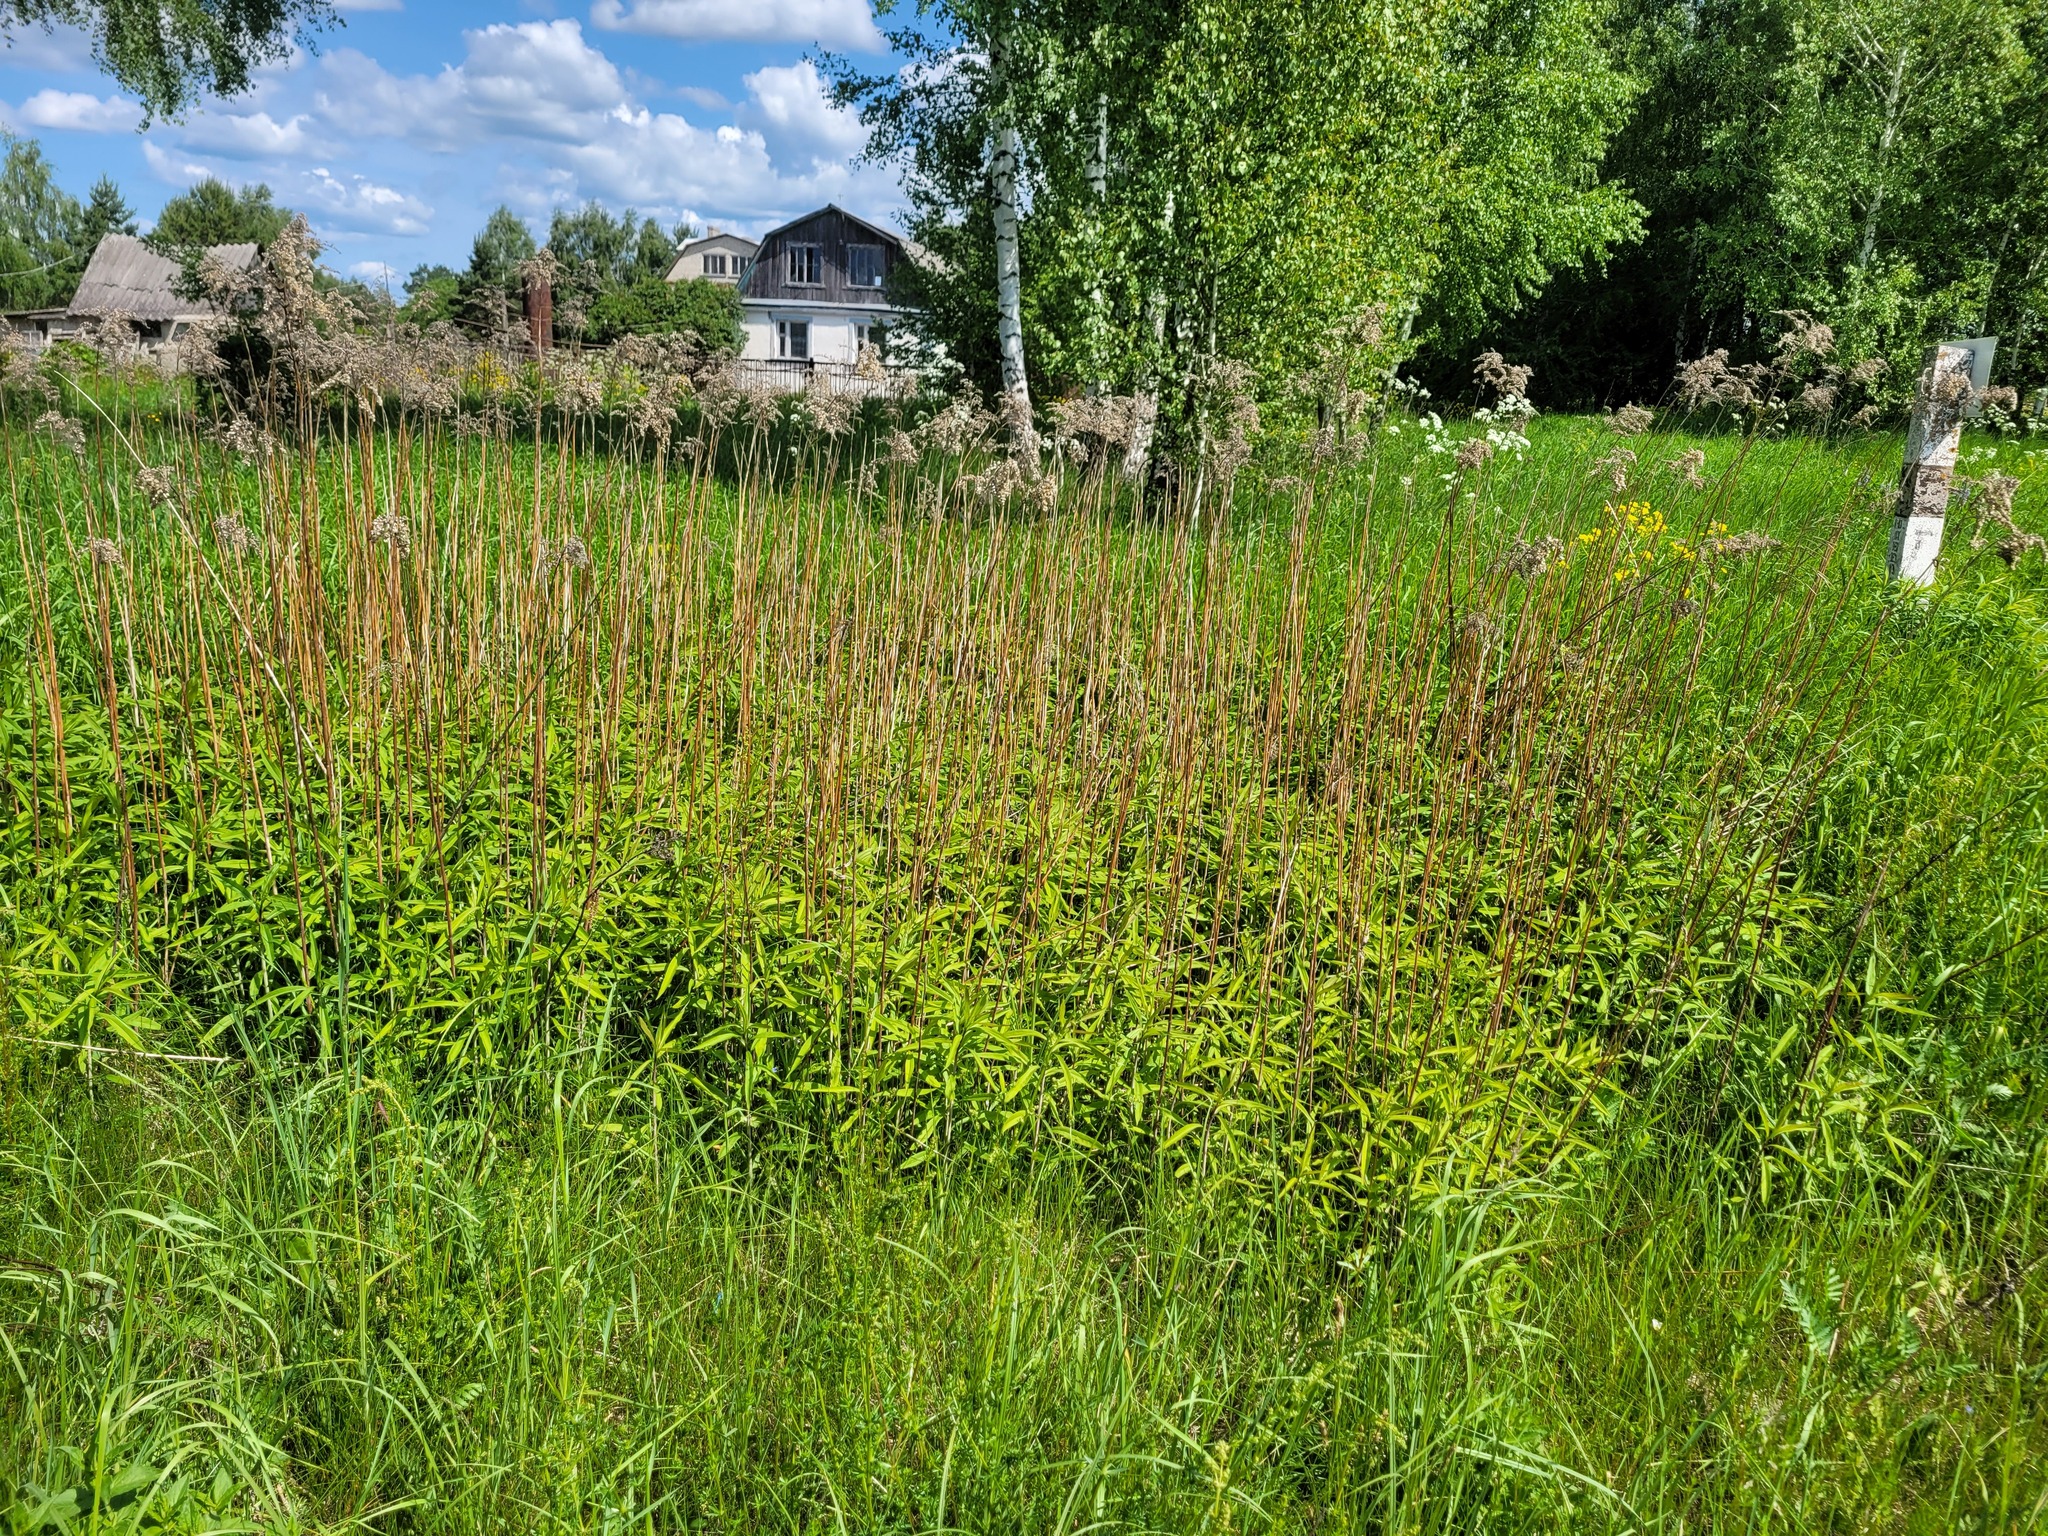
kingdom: Plantae
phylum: Tracheophyta
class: Magnoliopsida
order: Asterales
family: Asteraceae
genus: Solidago
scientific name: Solidago gigantea
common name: Giant goldenrod
